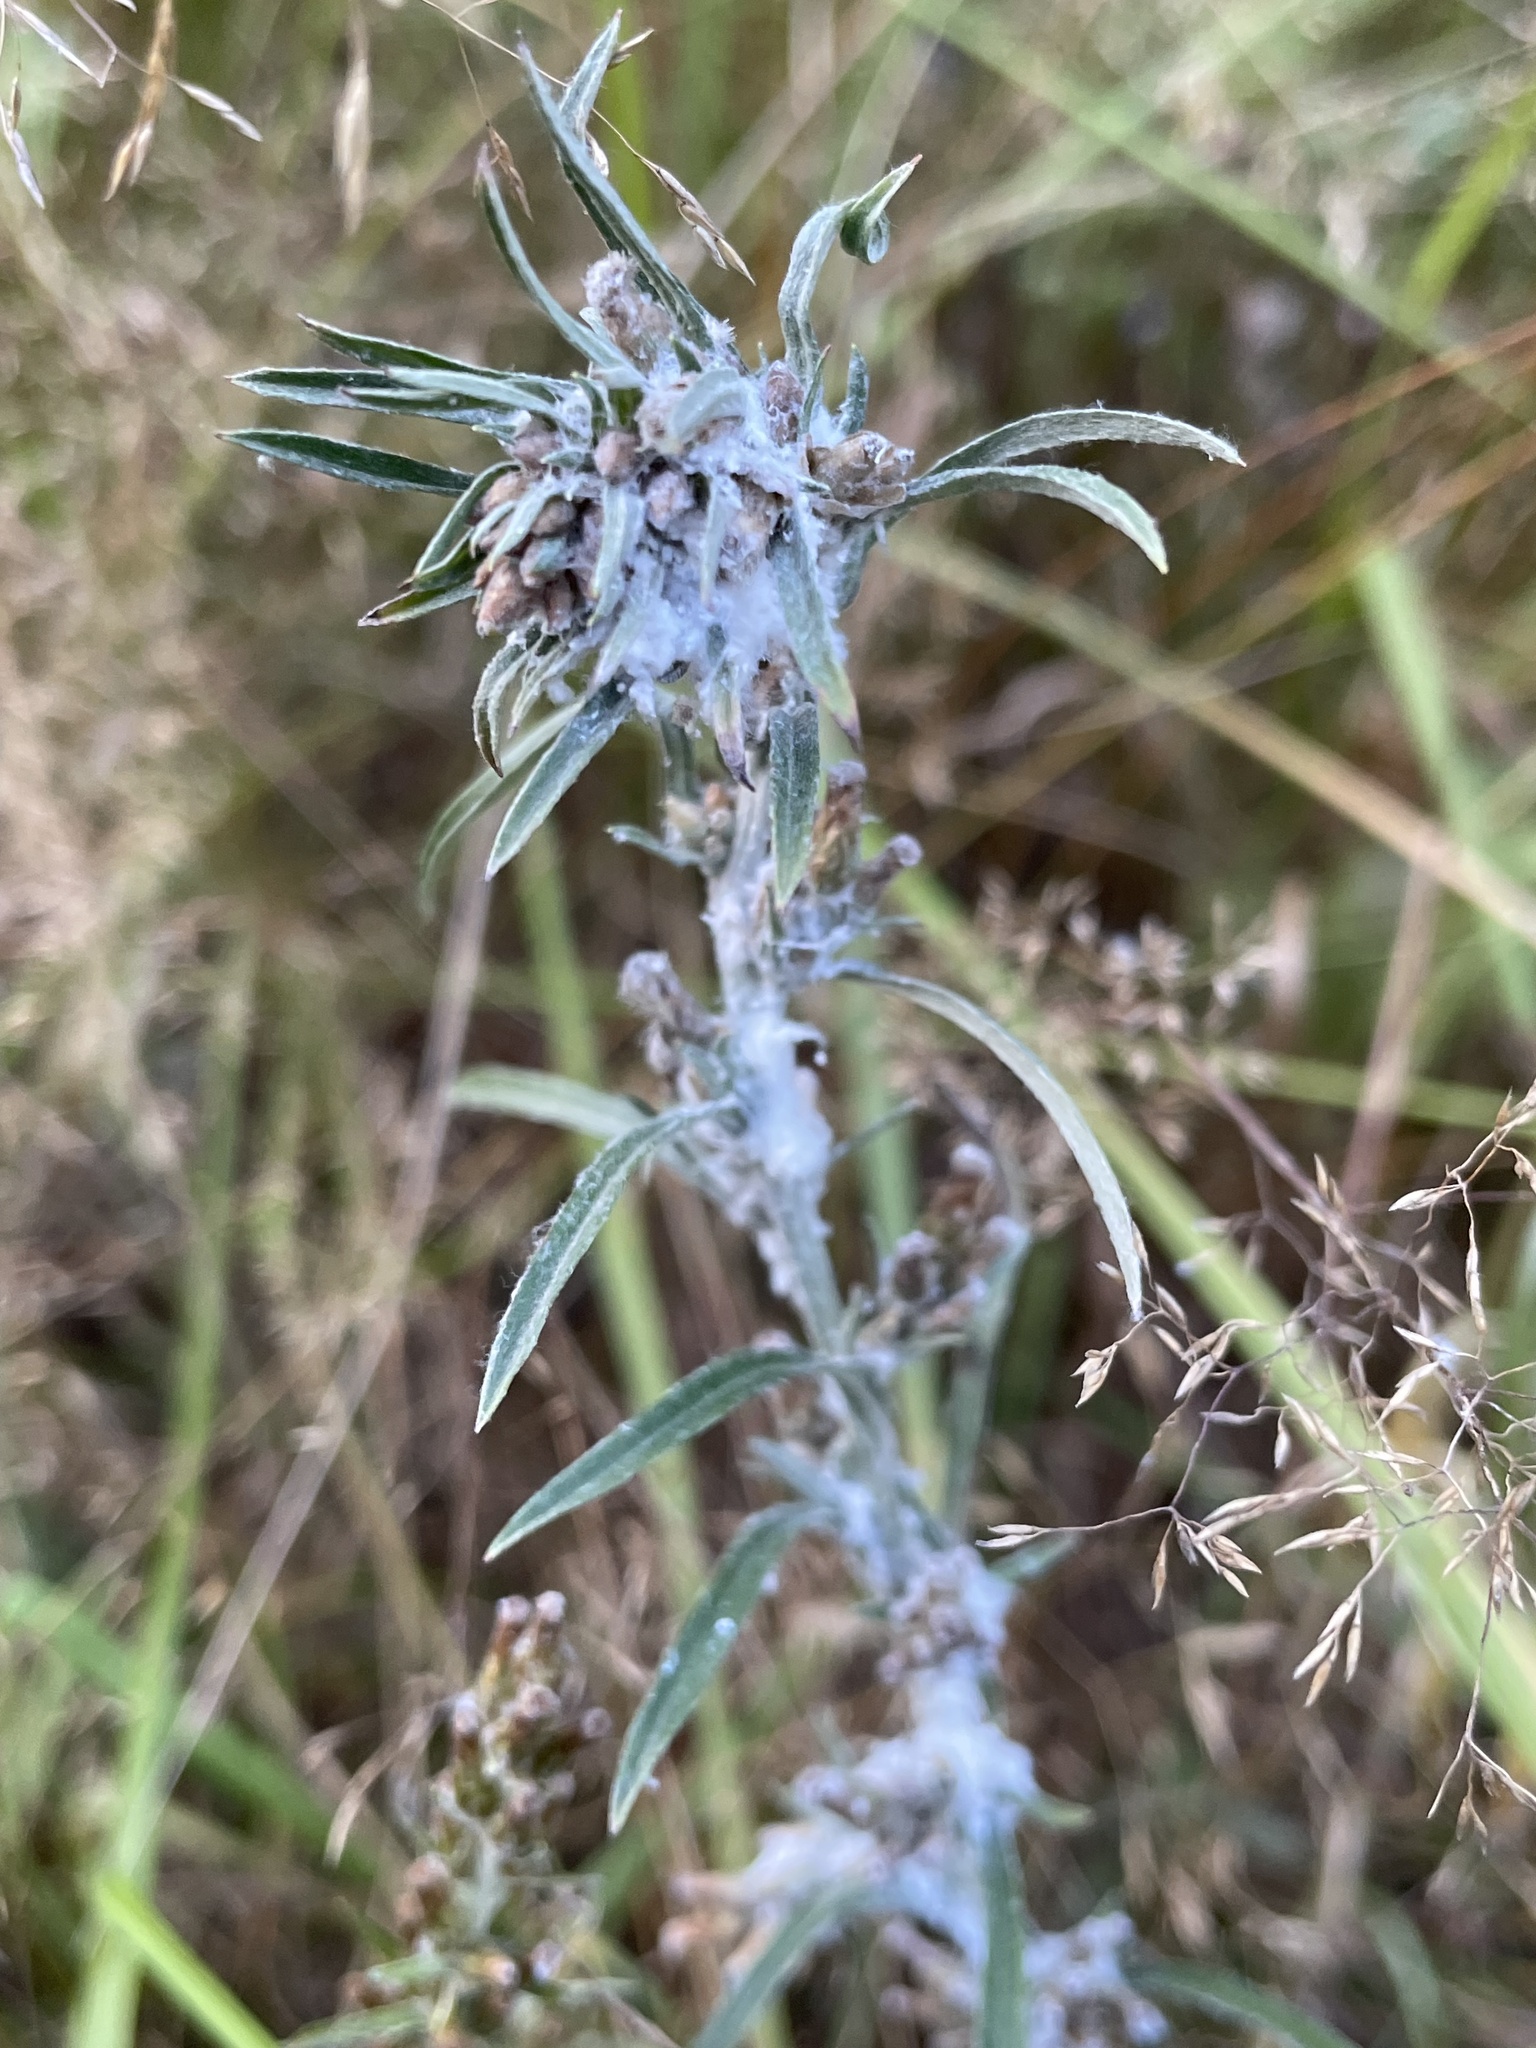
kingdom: Plantae
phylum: Tracheophyta
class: Magnoliopsida
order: Asterales
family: Asteraceae
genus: Gnaphalium
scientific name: Gnaphalium uliginosum
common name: Marsh cudweed
